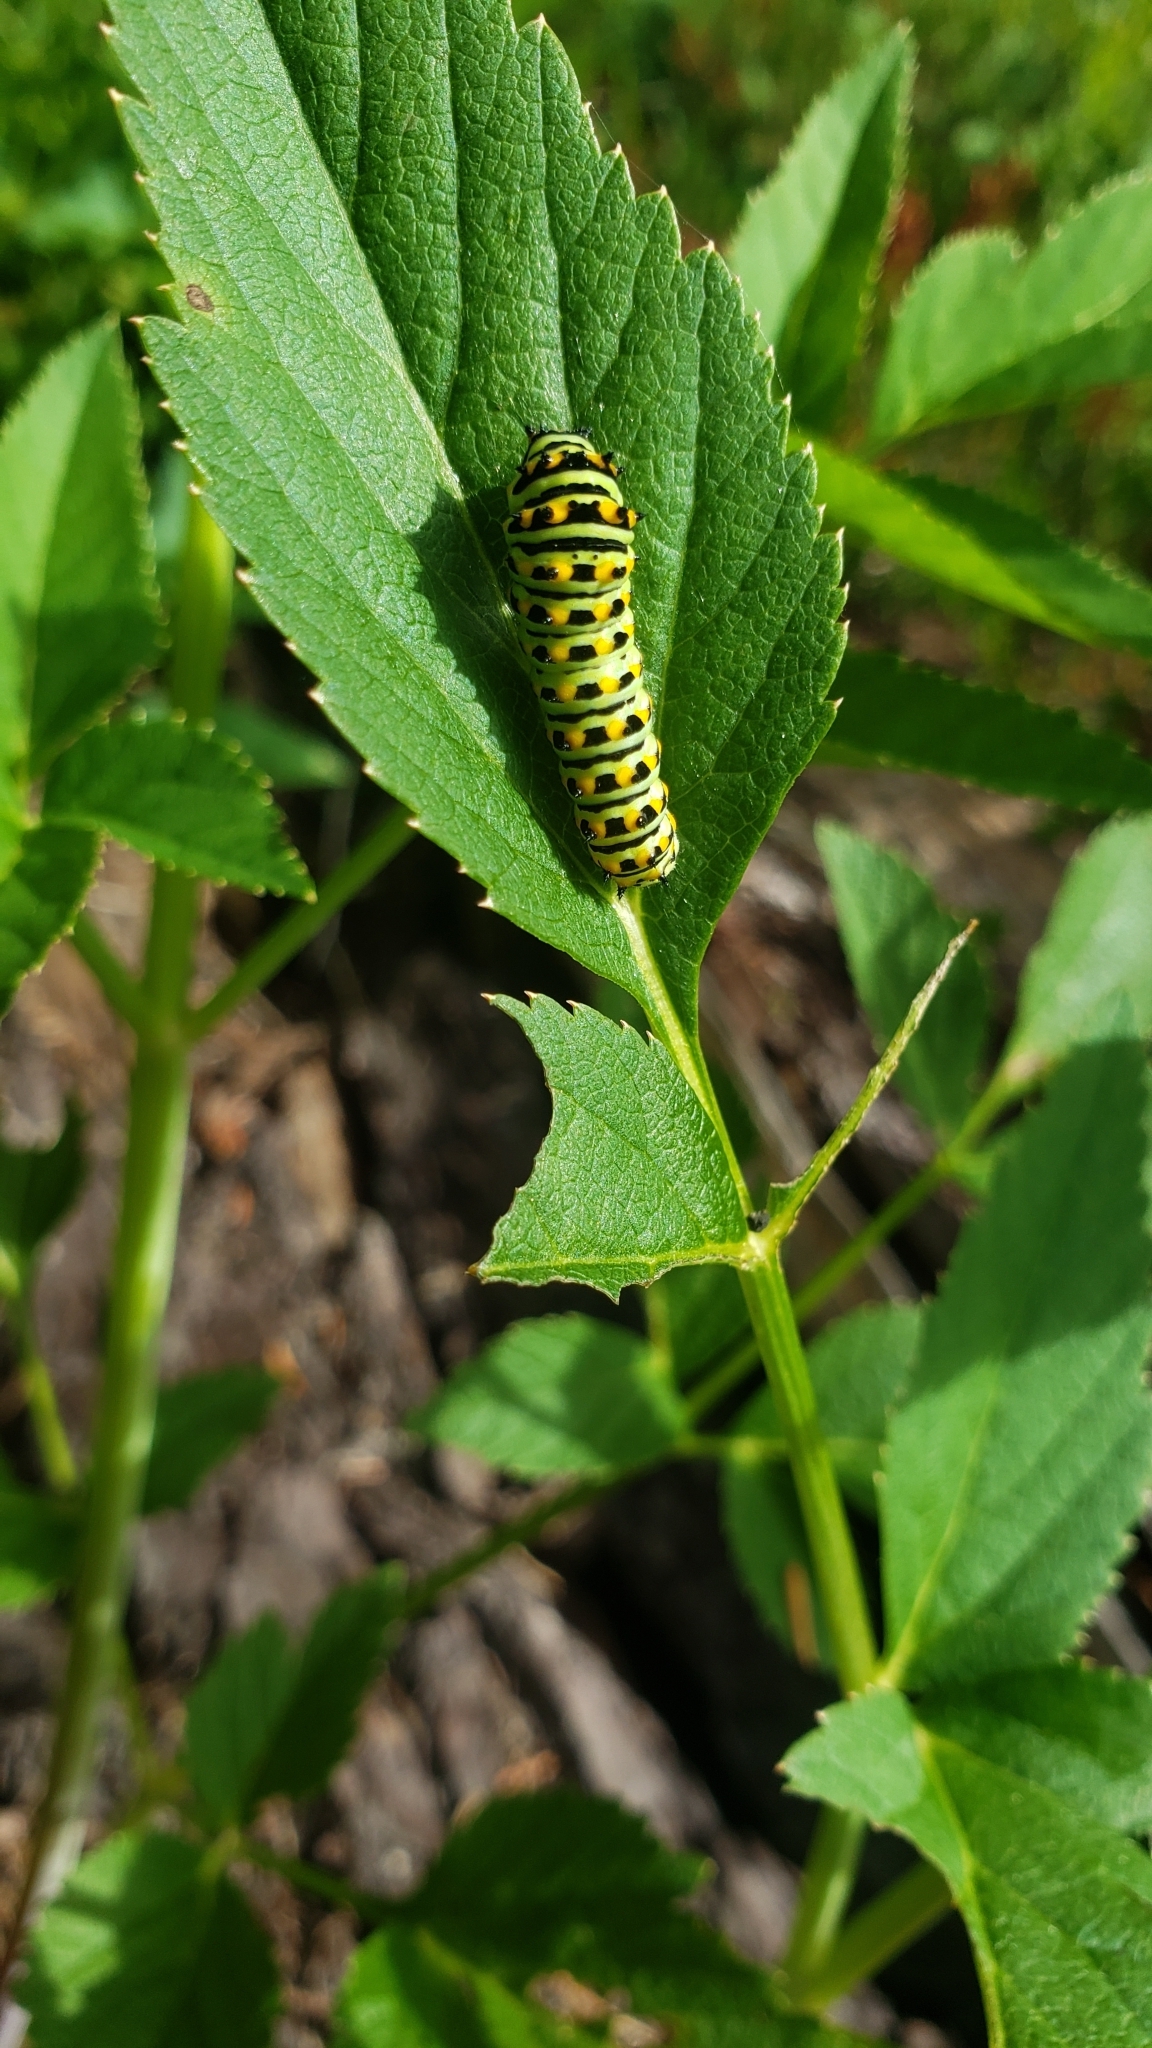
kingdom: Animalia
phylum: Arthropoda
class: Insecta
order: Lepidoptera
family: Papilionidae
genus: Papilio
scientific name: Papilio zelicaon
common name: Anise swallowtail
